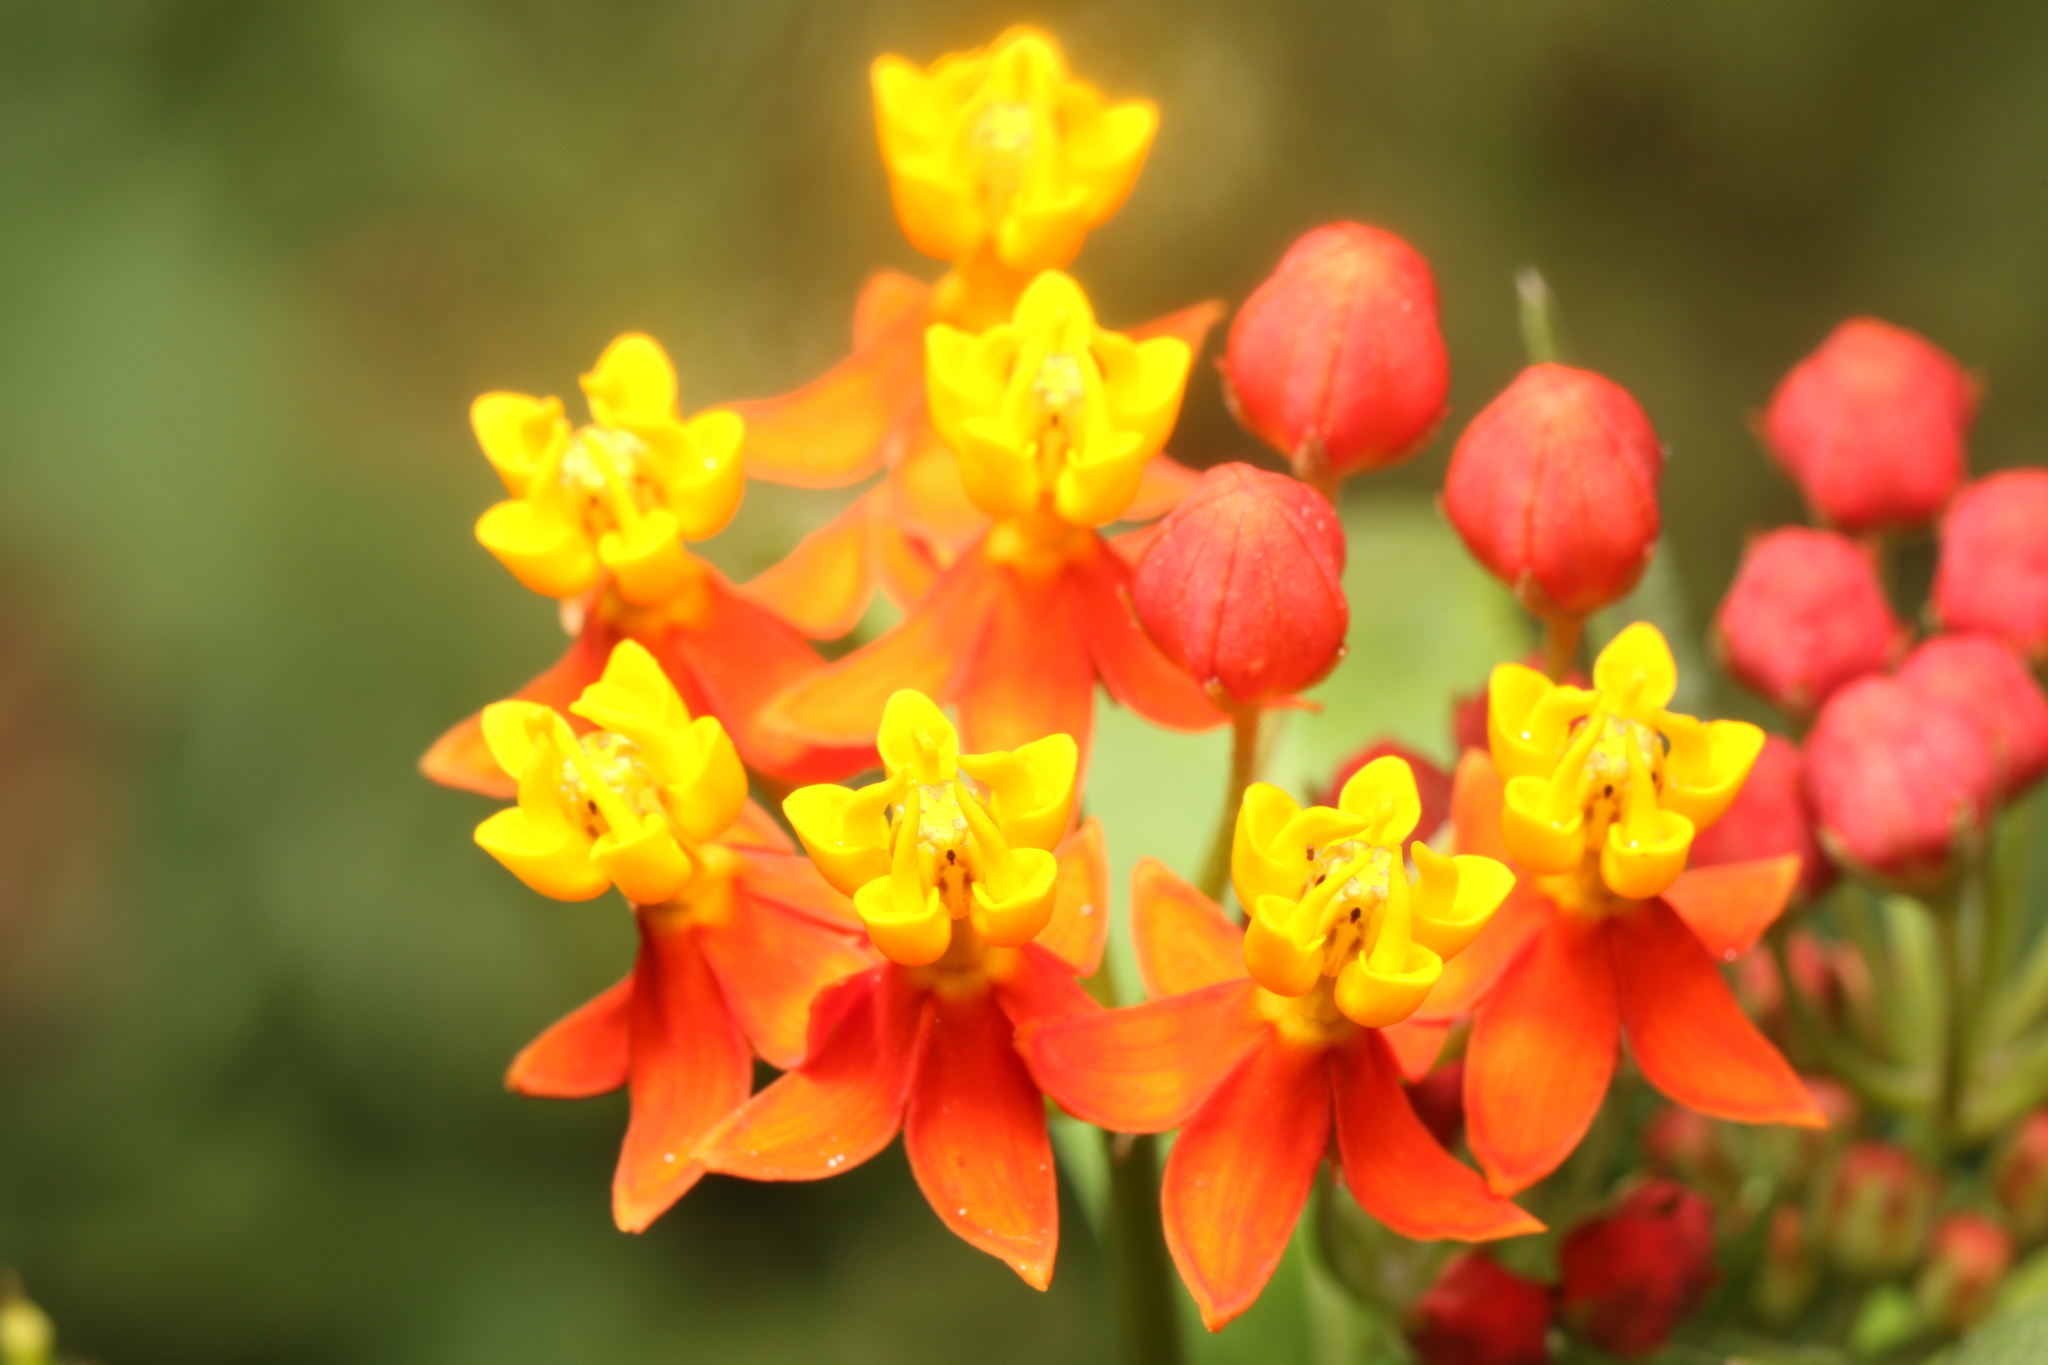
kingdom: Plantae
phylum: Tracheophyta
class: Magnoliopsida
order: Gentianales
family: Apocynaceae
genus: Asclepias
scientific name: Asclepias curassavica
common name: Bloodflower
